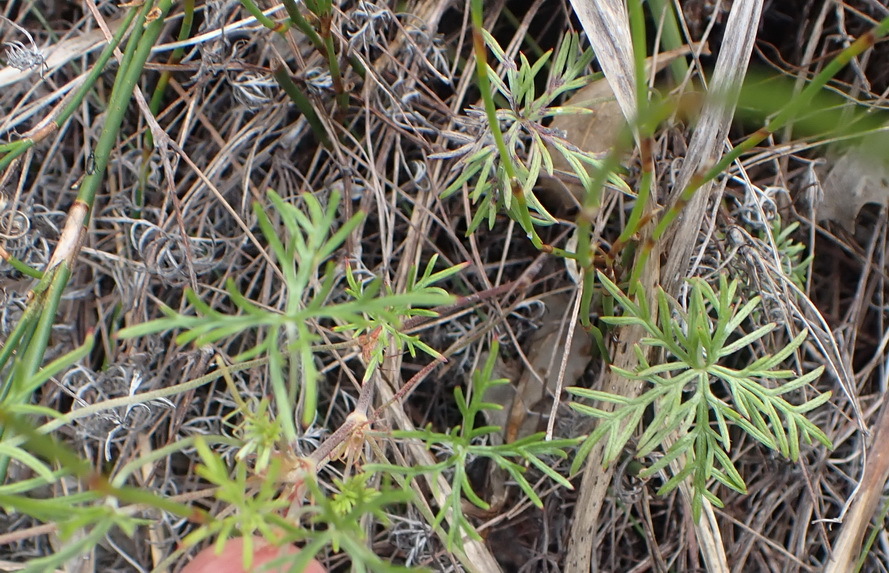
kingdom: Plantae
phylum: Tracheophyta
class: Magnoliopsida
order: Geraniales
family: Geraniaceae
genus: Geranium
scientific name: Geranium incanum
